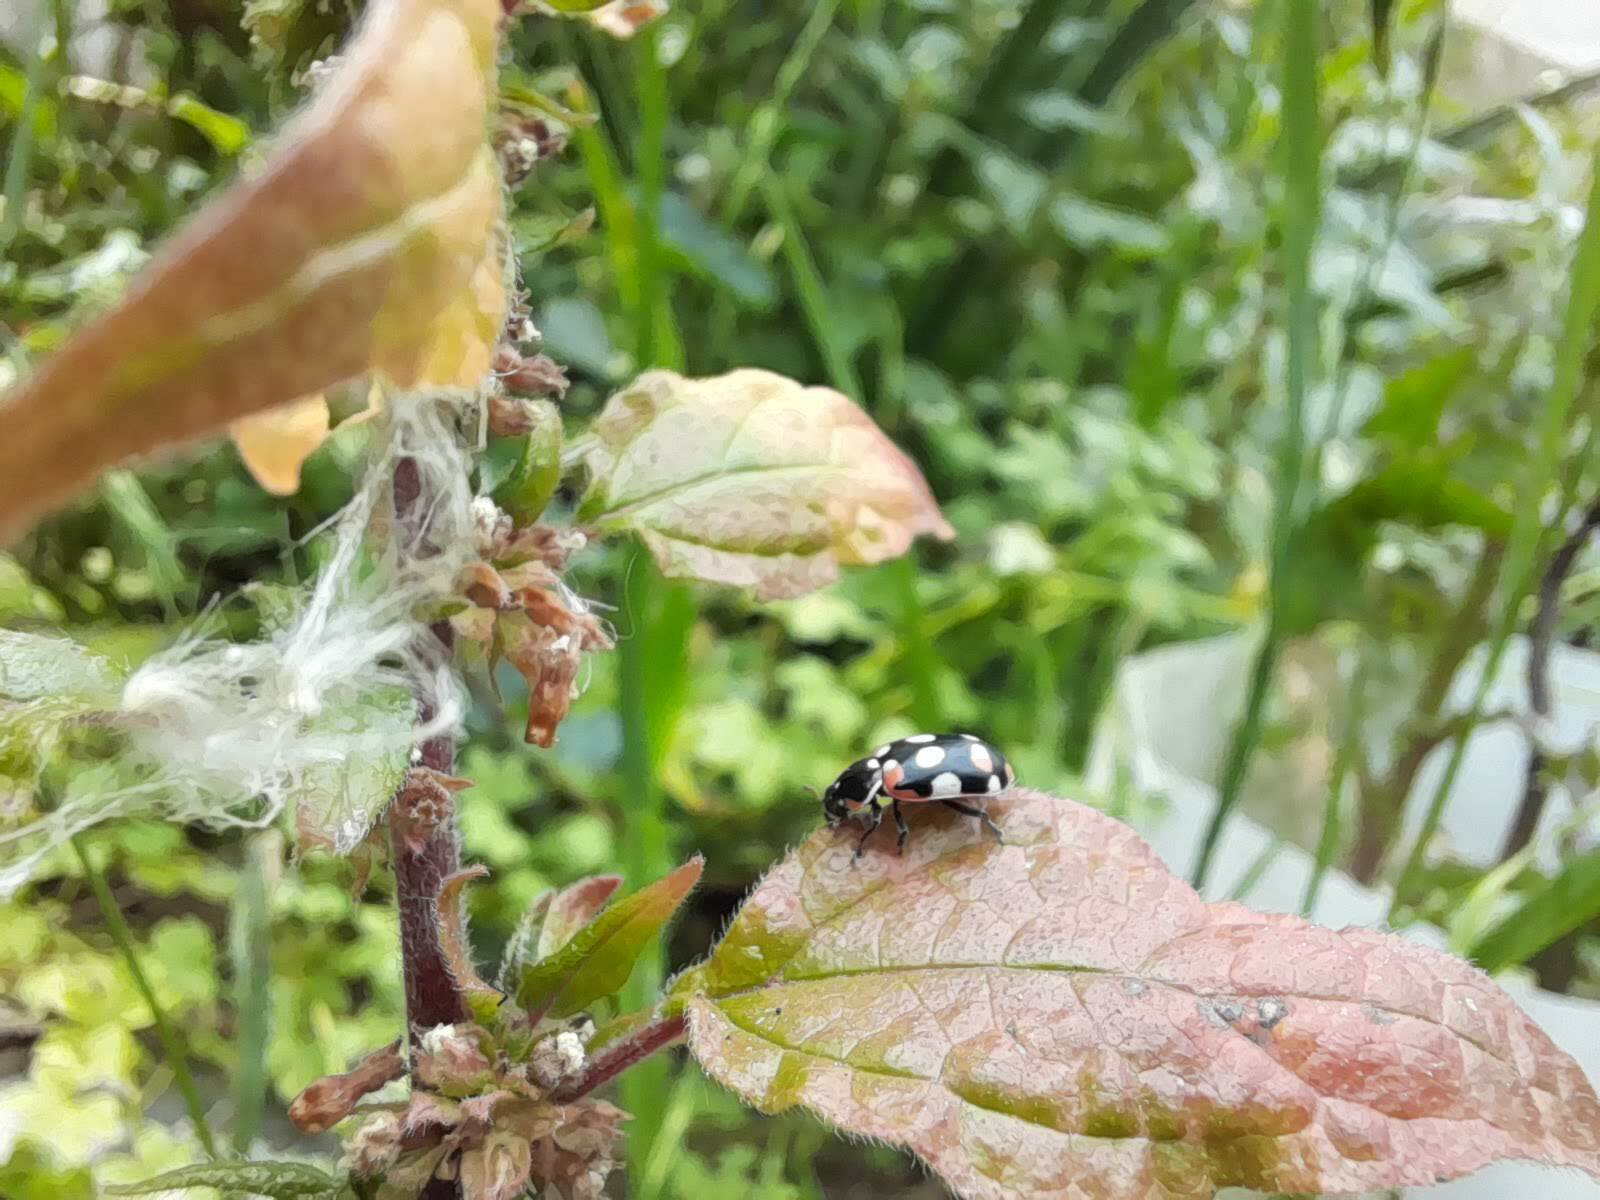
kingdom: Animalia
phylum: Arthropoda
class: Insecta
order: Coleoptera
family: Coccinellidae
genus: Eriopis
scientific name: Eriopis connexa
